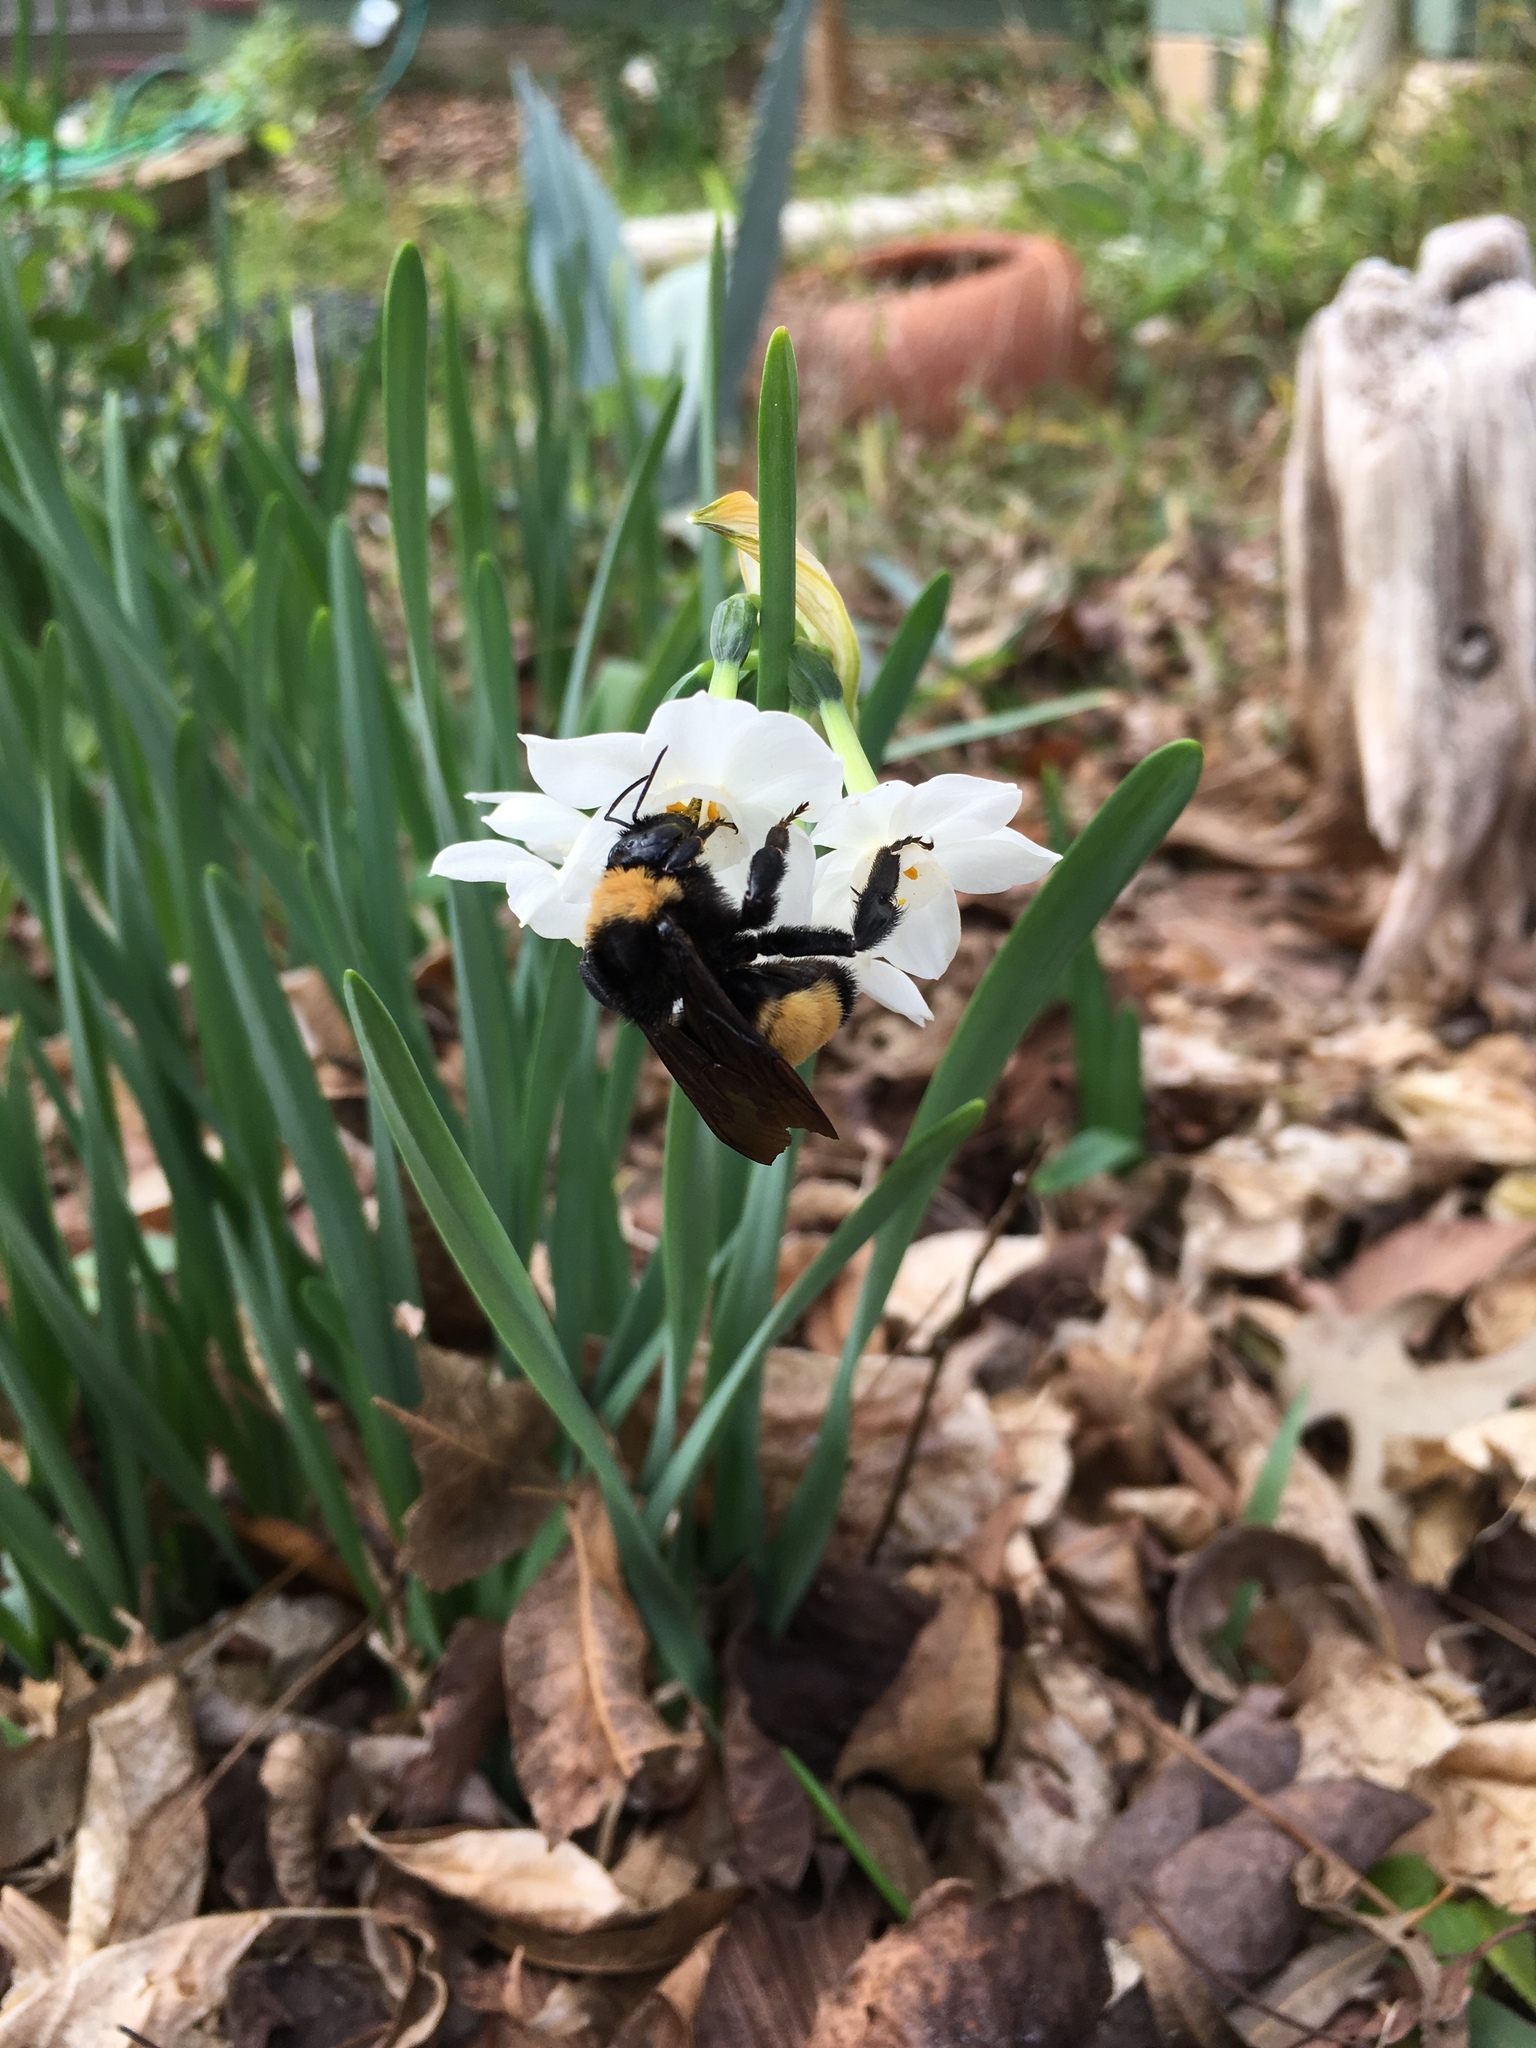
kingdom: Animalia
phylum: Arthropoda
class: Insecta
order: Hymenoptera
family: Apidae
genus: Bombus
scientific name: Bombus pensylvanicus
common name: Bumble bee
